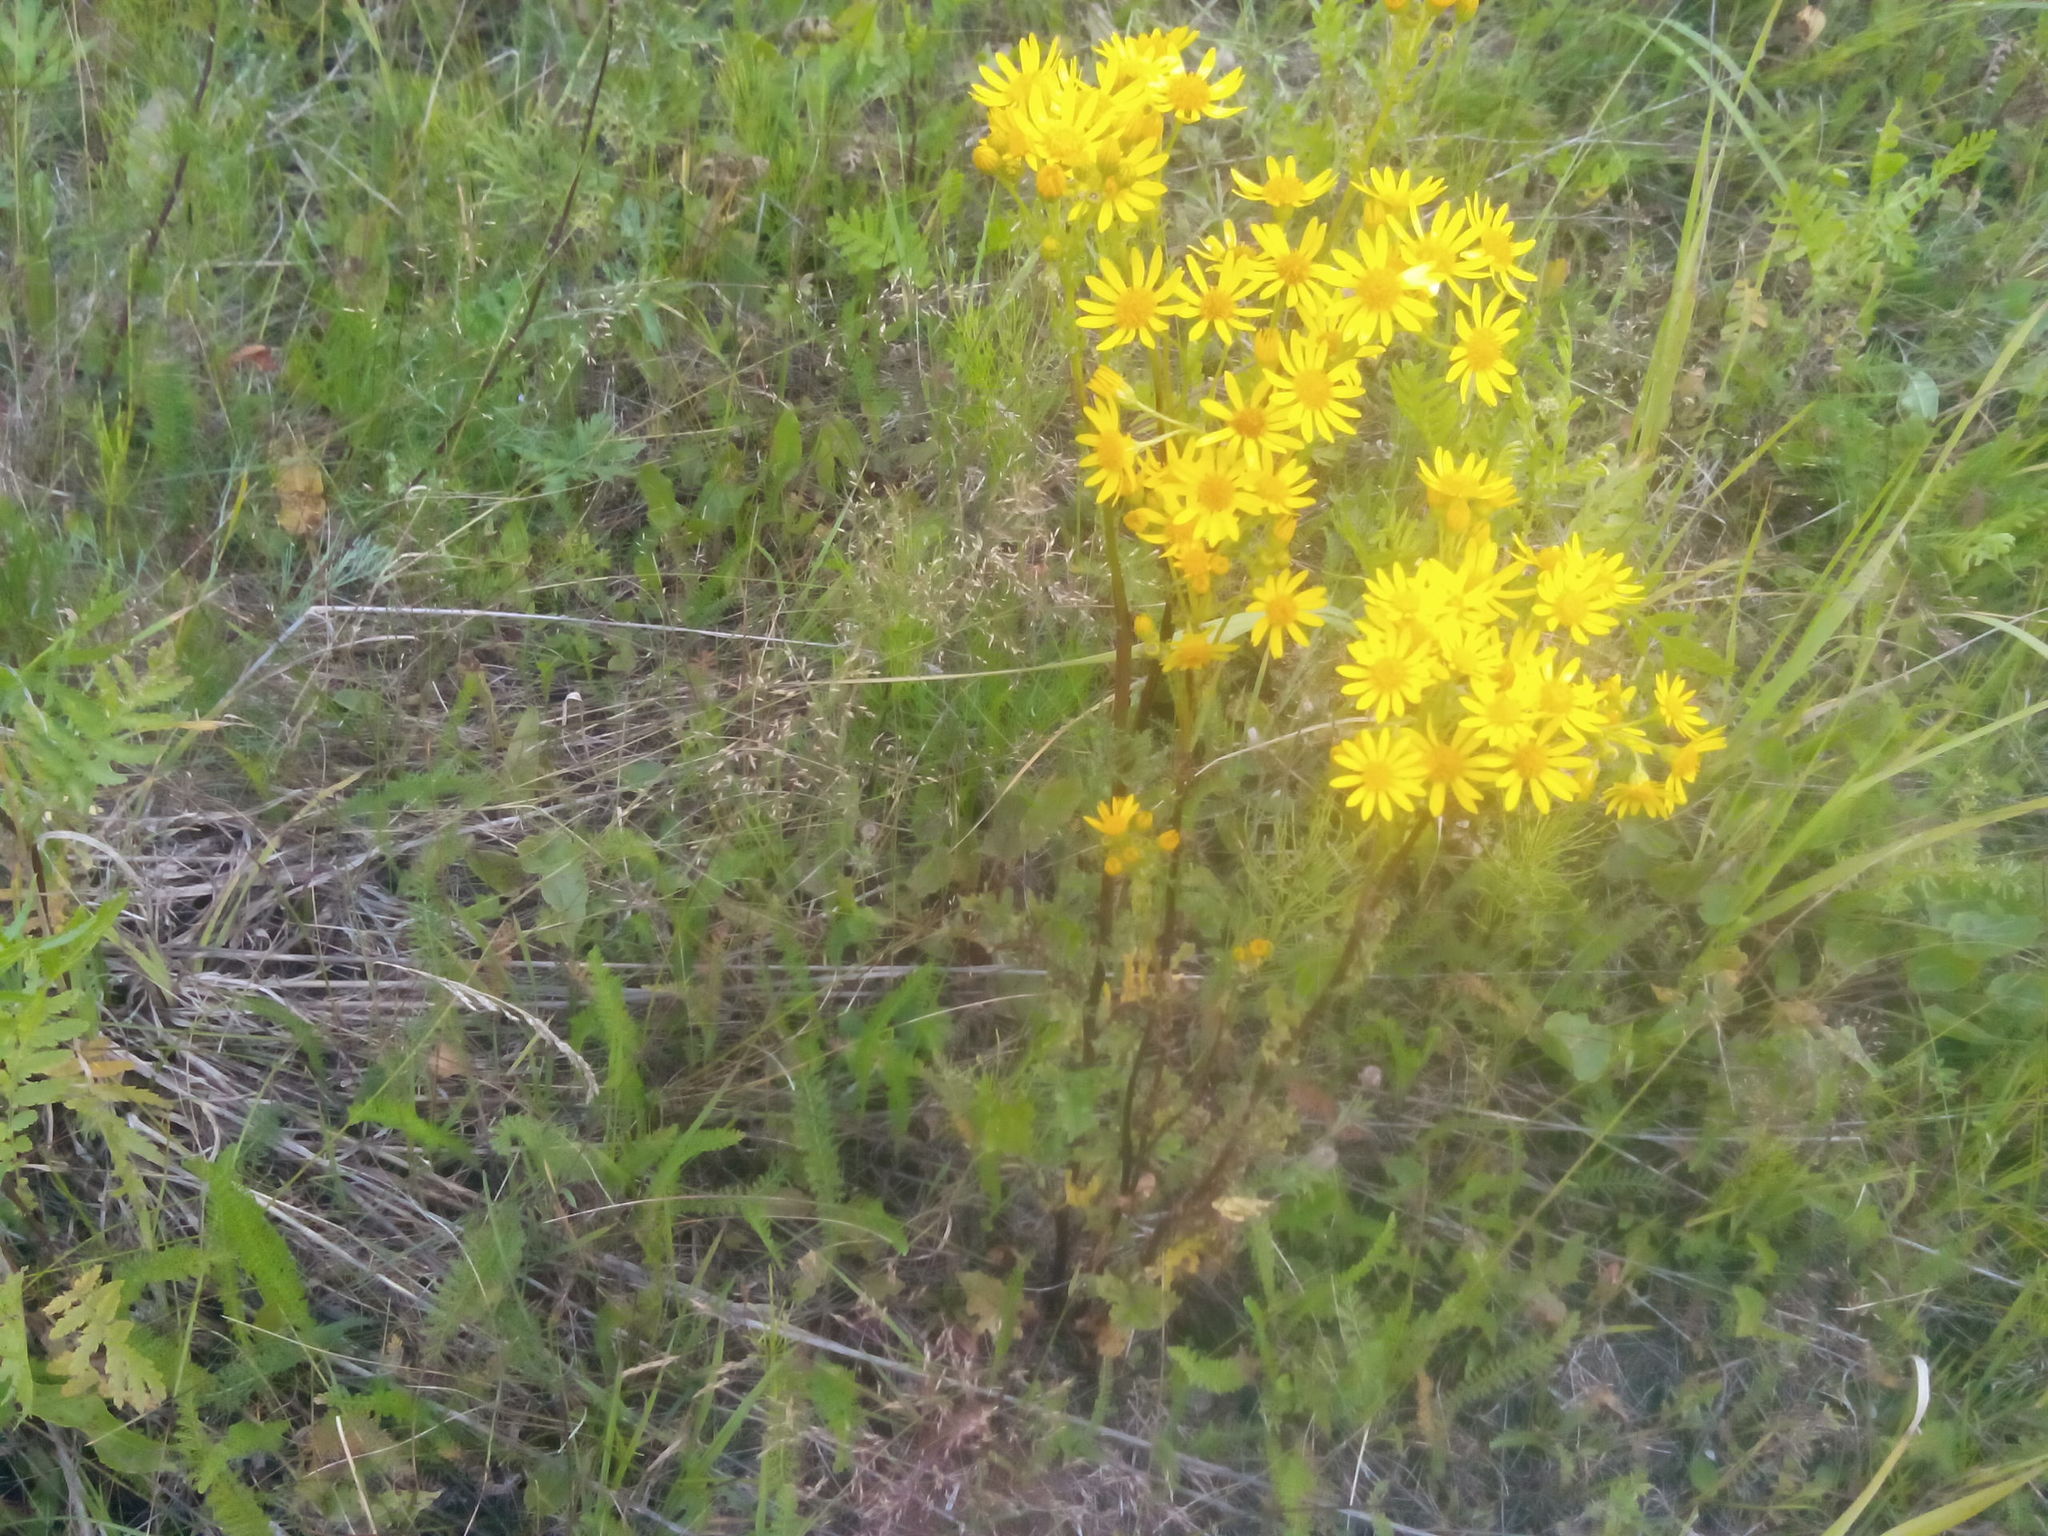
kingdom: Plantae
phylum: Tracheophyta
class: Magnoliopsida
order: Asterales
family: Asteraceae
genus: Jacobaea
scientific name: Jacobaea vulgaris
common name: Stinking willie
